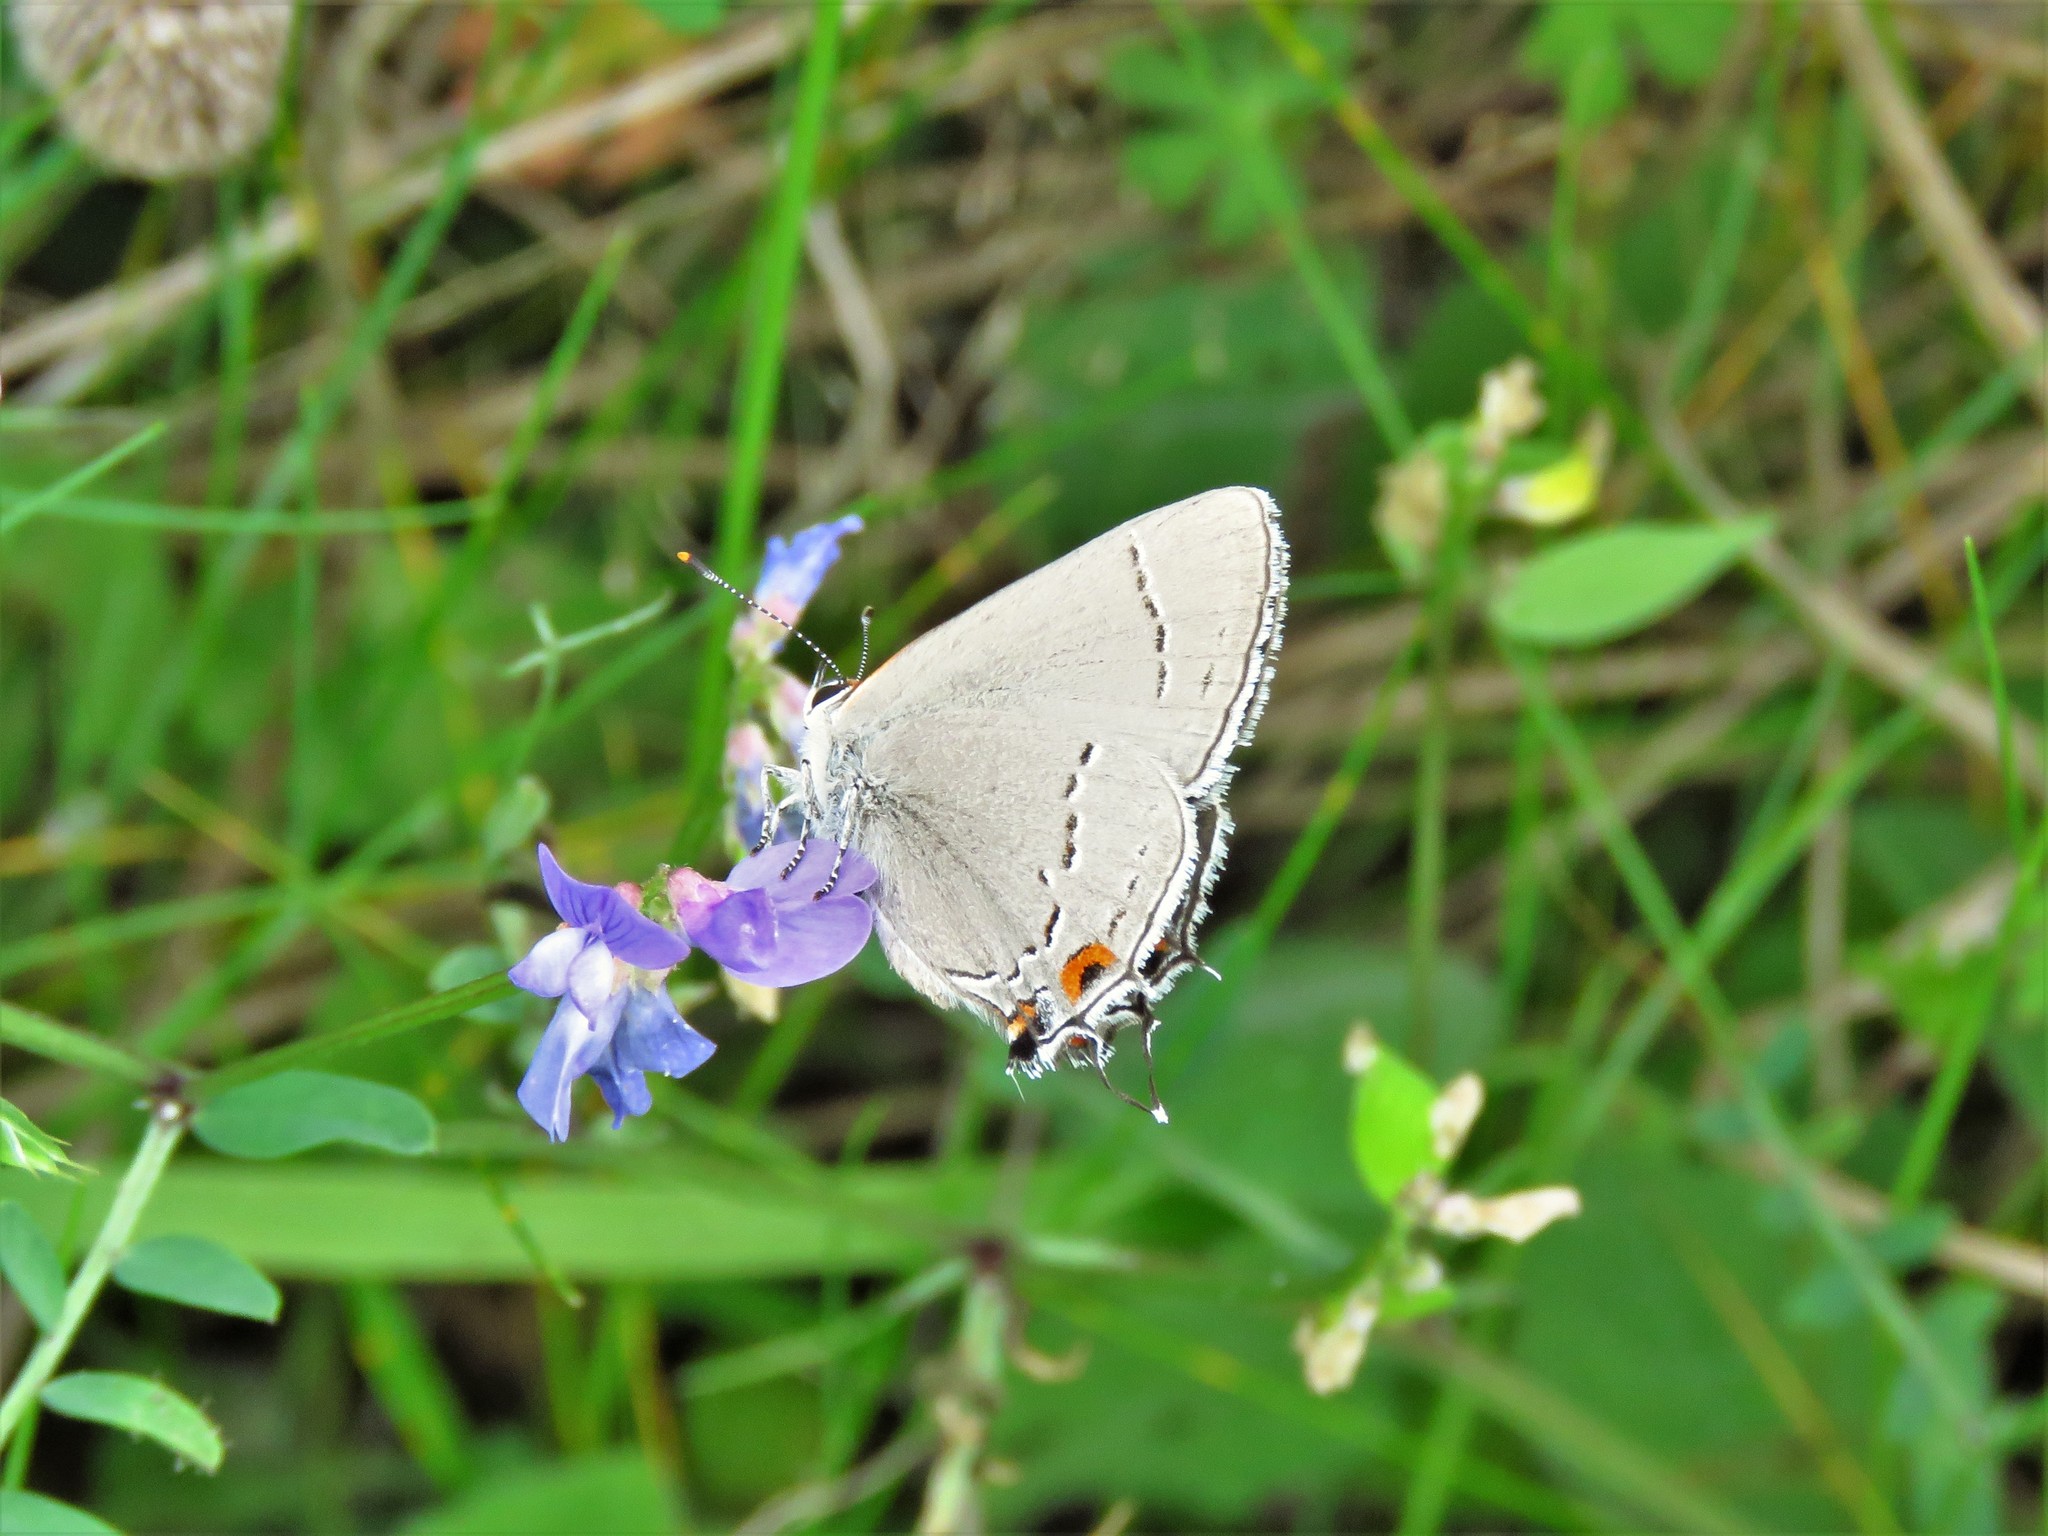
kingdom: Animalia
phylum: Arthropoda
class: Insecta
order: Lepidoptera
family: Lycaenidae
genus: Strymon
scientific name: Strymon melinus
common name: Gray hairstreak
